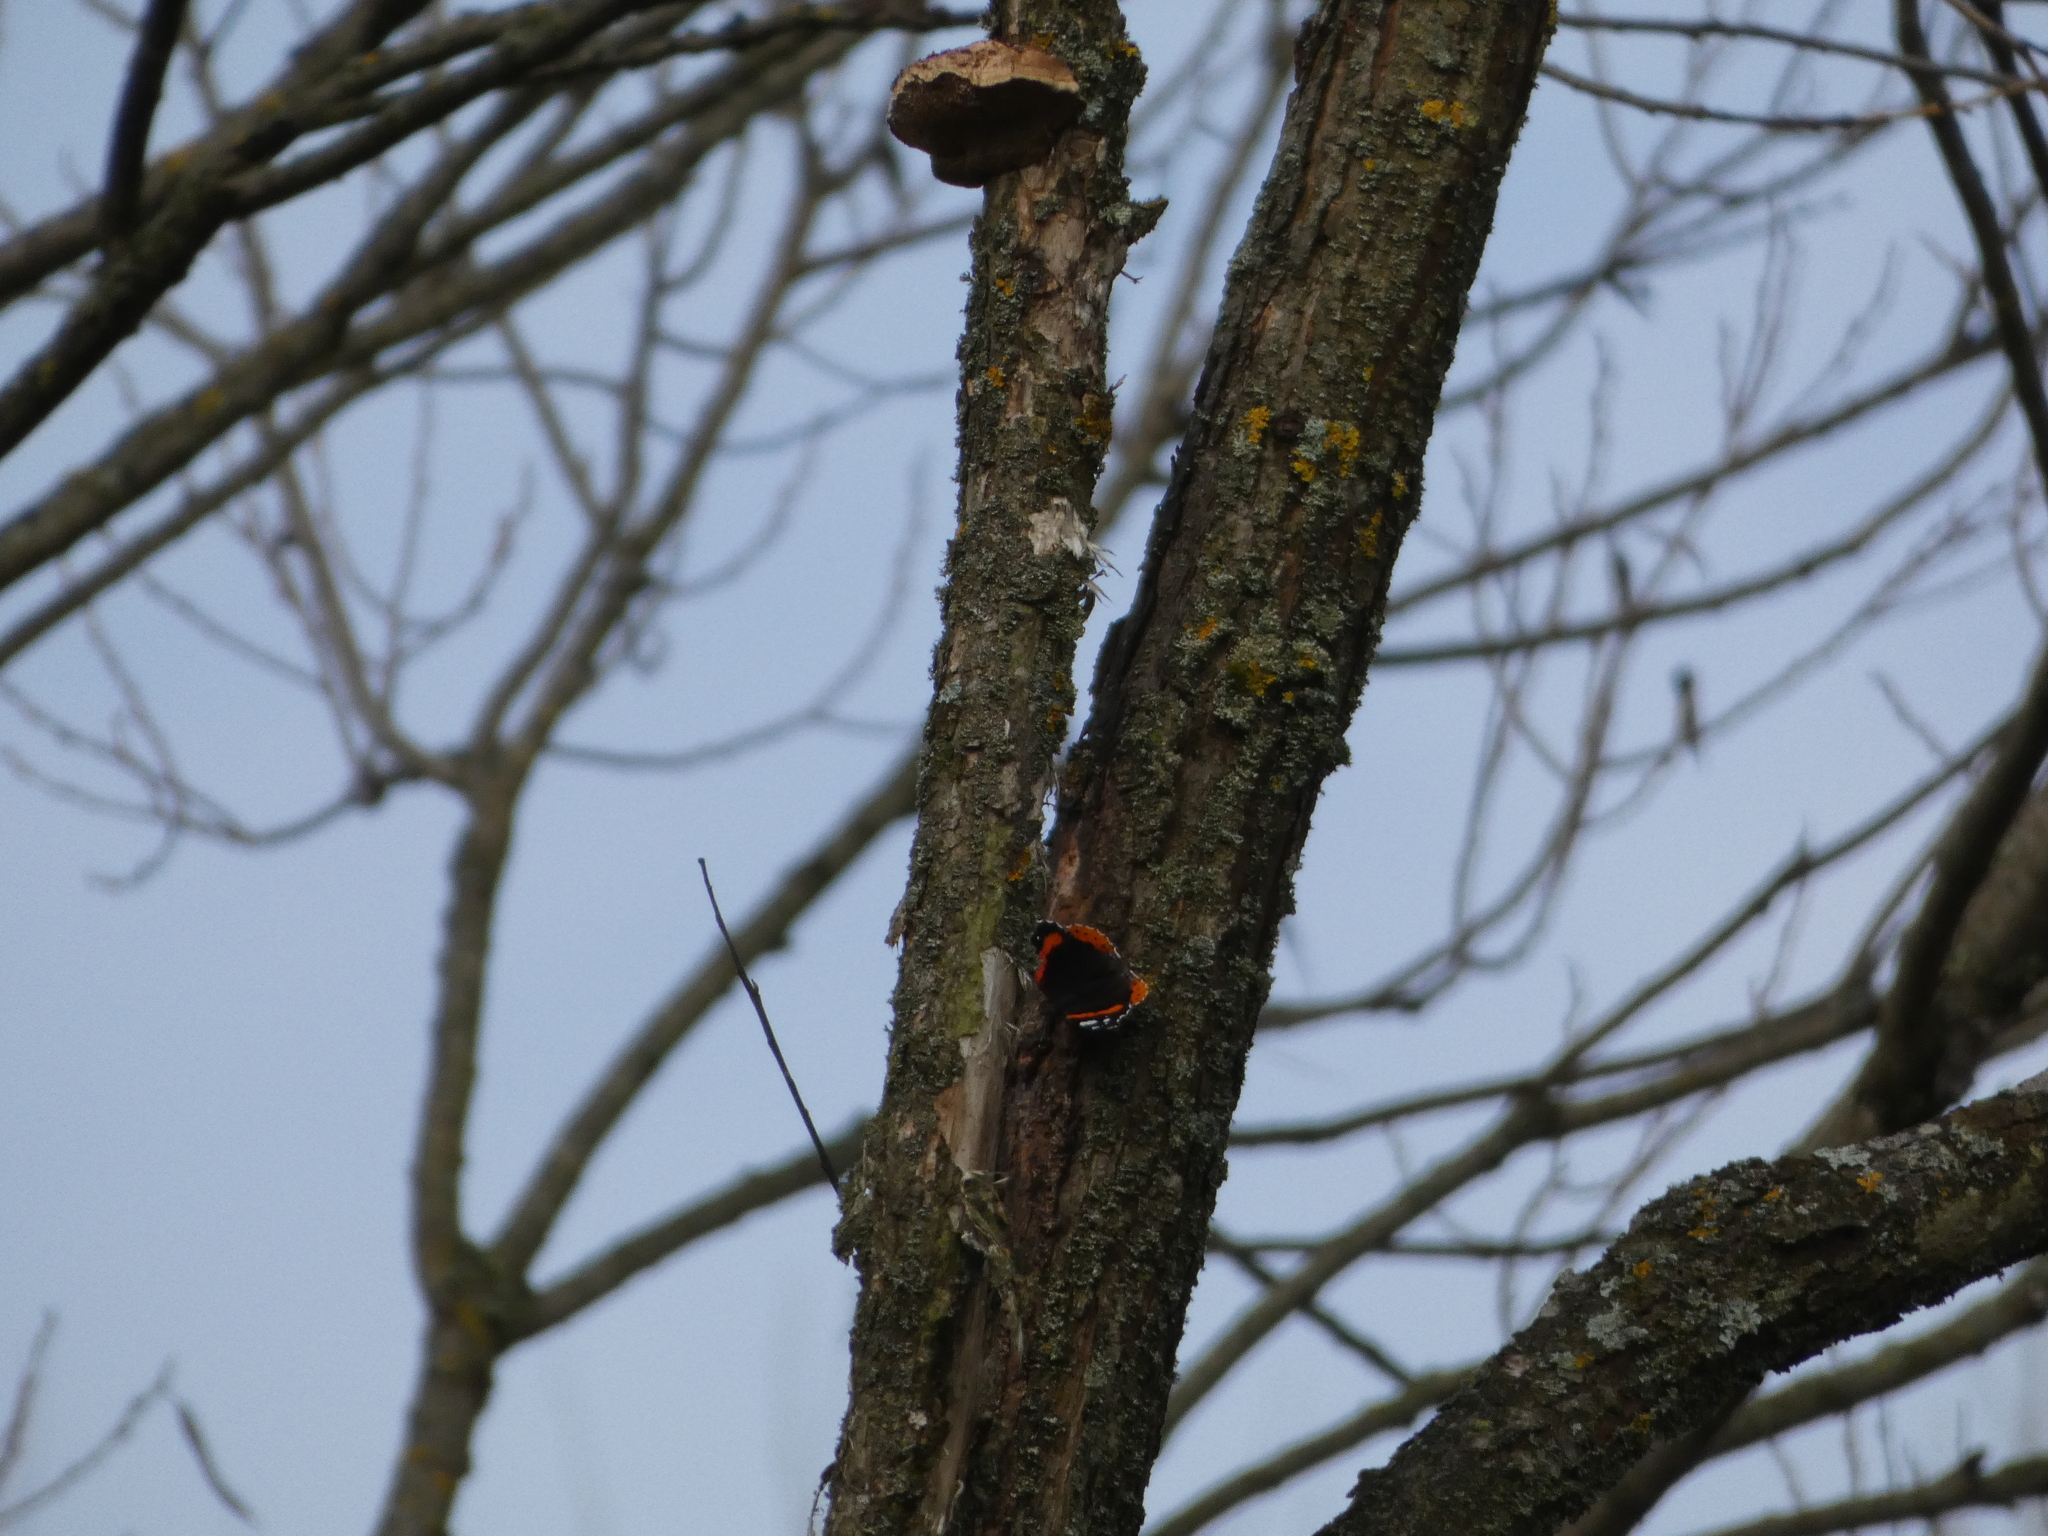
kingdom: Animalia
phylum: Arthropoda
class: Insecta
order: Lepidoptera
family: Nymphalidae
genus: Vanessa
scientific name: Vanessa atalanta
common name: Red admiral
